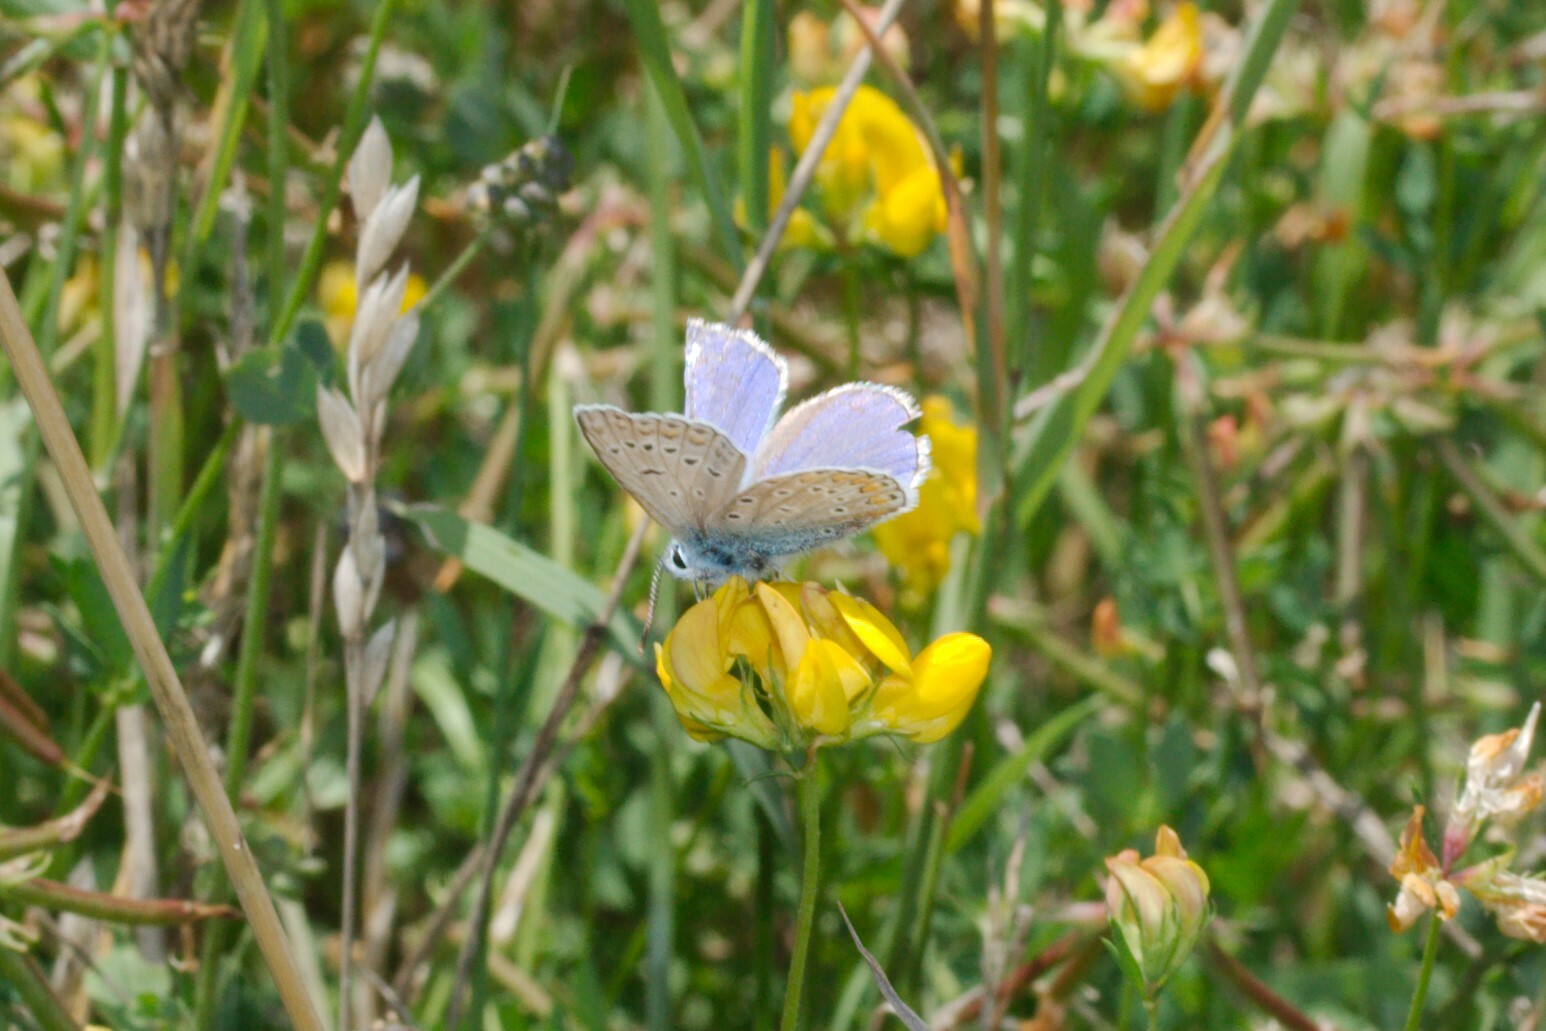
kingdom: Animalia
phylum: Arthropoda
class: Insecta
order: Lepidoptera
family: Lycaenidae
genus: Polyommatus
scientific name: Polyommatus icarus
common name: Common blue
